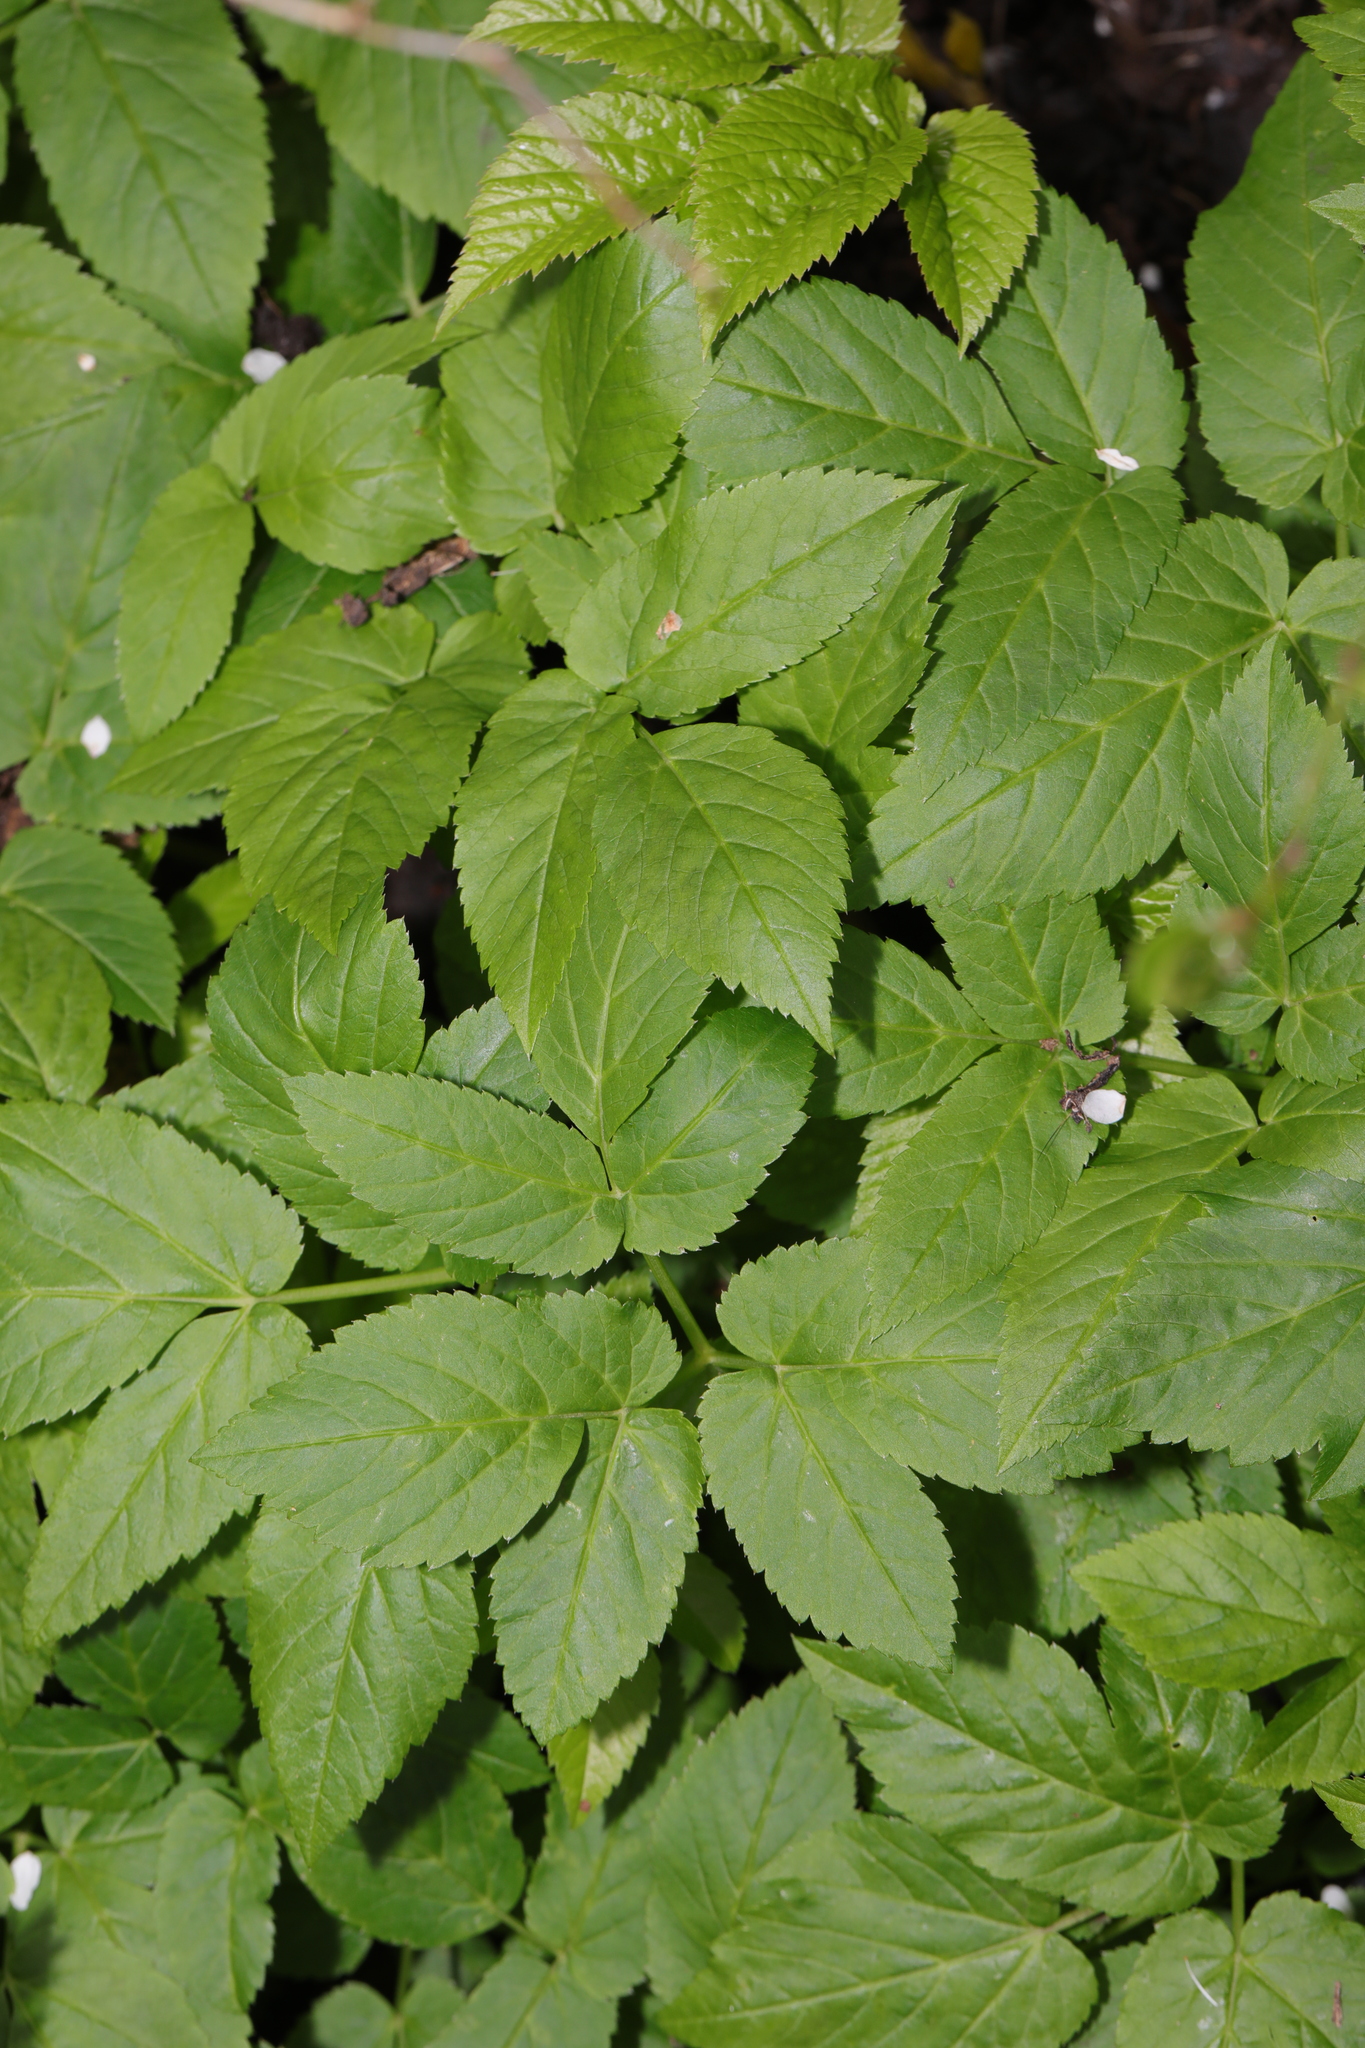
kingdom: Plantae
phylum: Tracheophyta
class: Magnoliopsida
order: Apiales
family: Apiaceae
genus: Aegopodium
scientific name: Aegopodium podagraria
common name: Ground-elder
